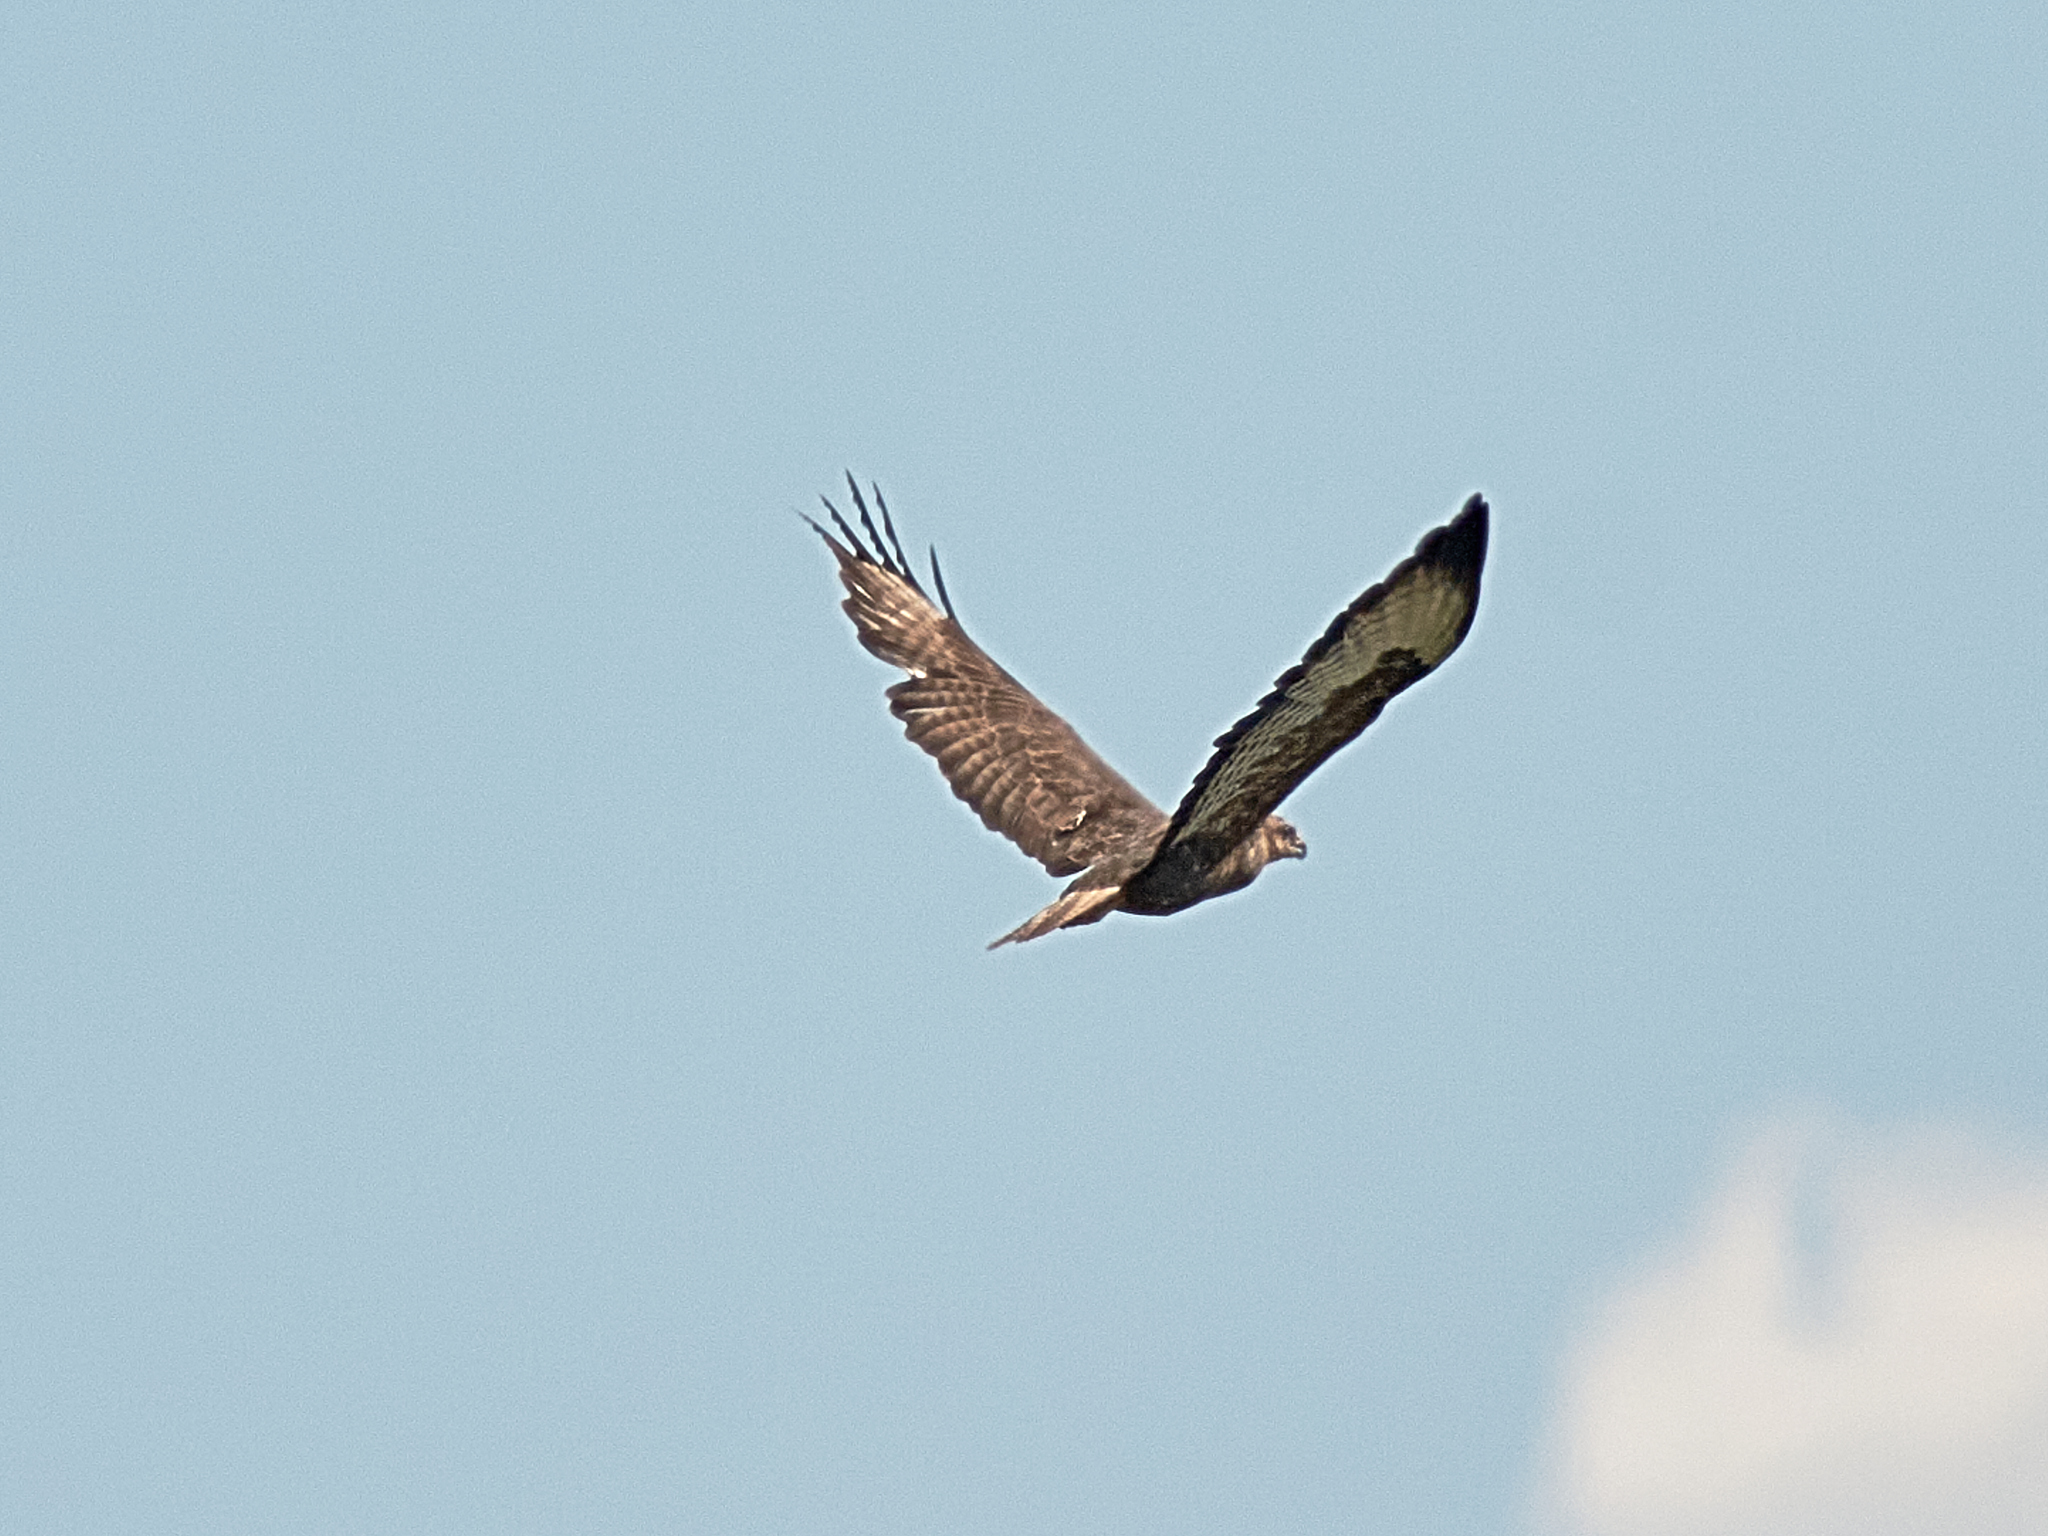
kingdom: Animalia
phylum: Chordata
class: Aves
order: Accipitriformes
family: Accipitridae
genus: Buteo
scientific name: Buteo buteo
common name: Common buzzard
